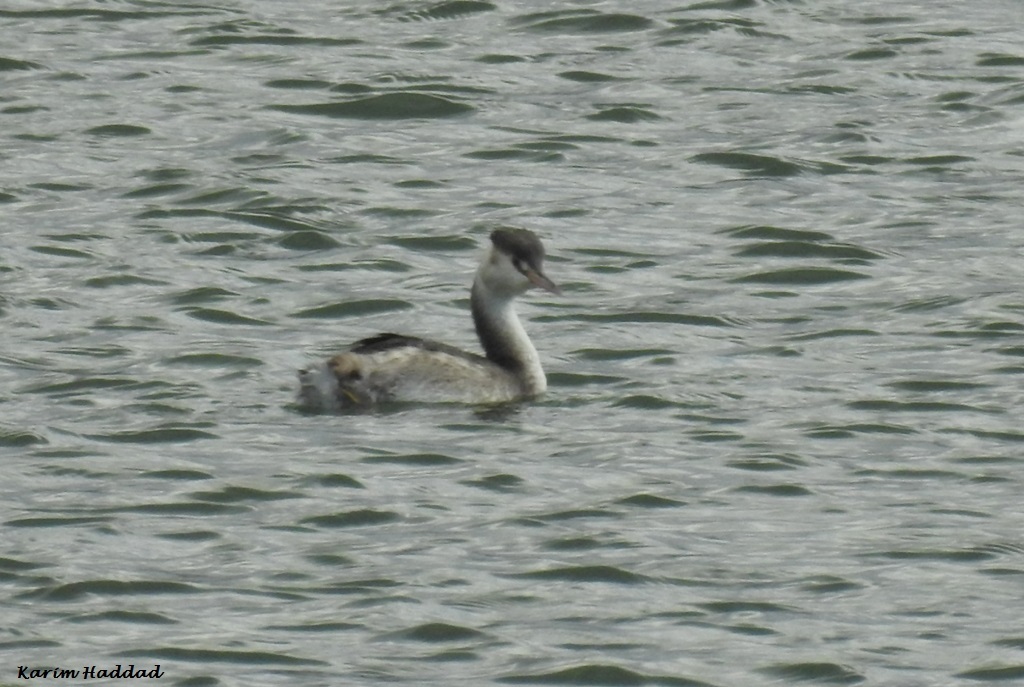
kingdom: Animalia
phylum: Chordata
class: Aves
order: Podicipediformes
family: Podicipedidae
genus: Podiceps
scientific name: Podiceps cristatus
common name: Great crested grebe
